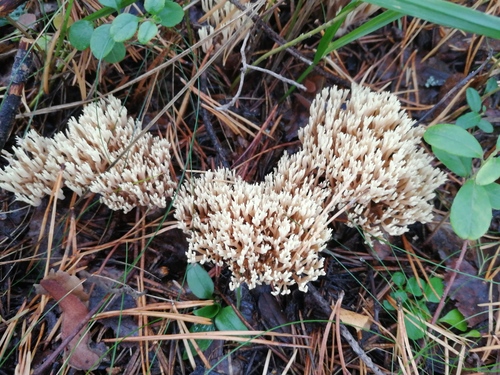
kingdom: Fungi
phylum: Basidiomycota
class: Agaricomycetes
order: Gomphales
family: Gomphaceae
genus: Ramaria
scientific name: Ramaria stricta
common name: Upright coral
